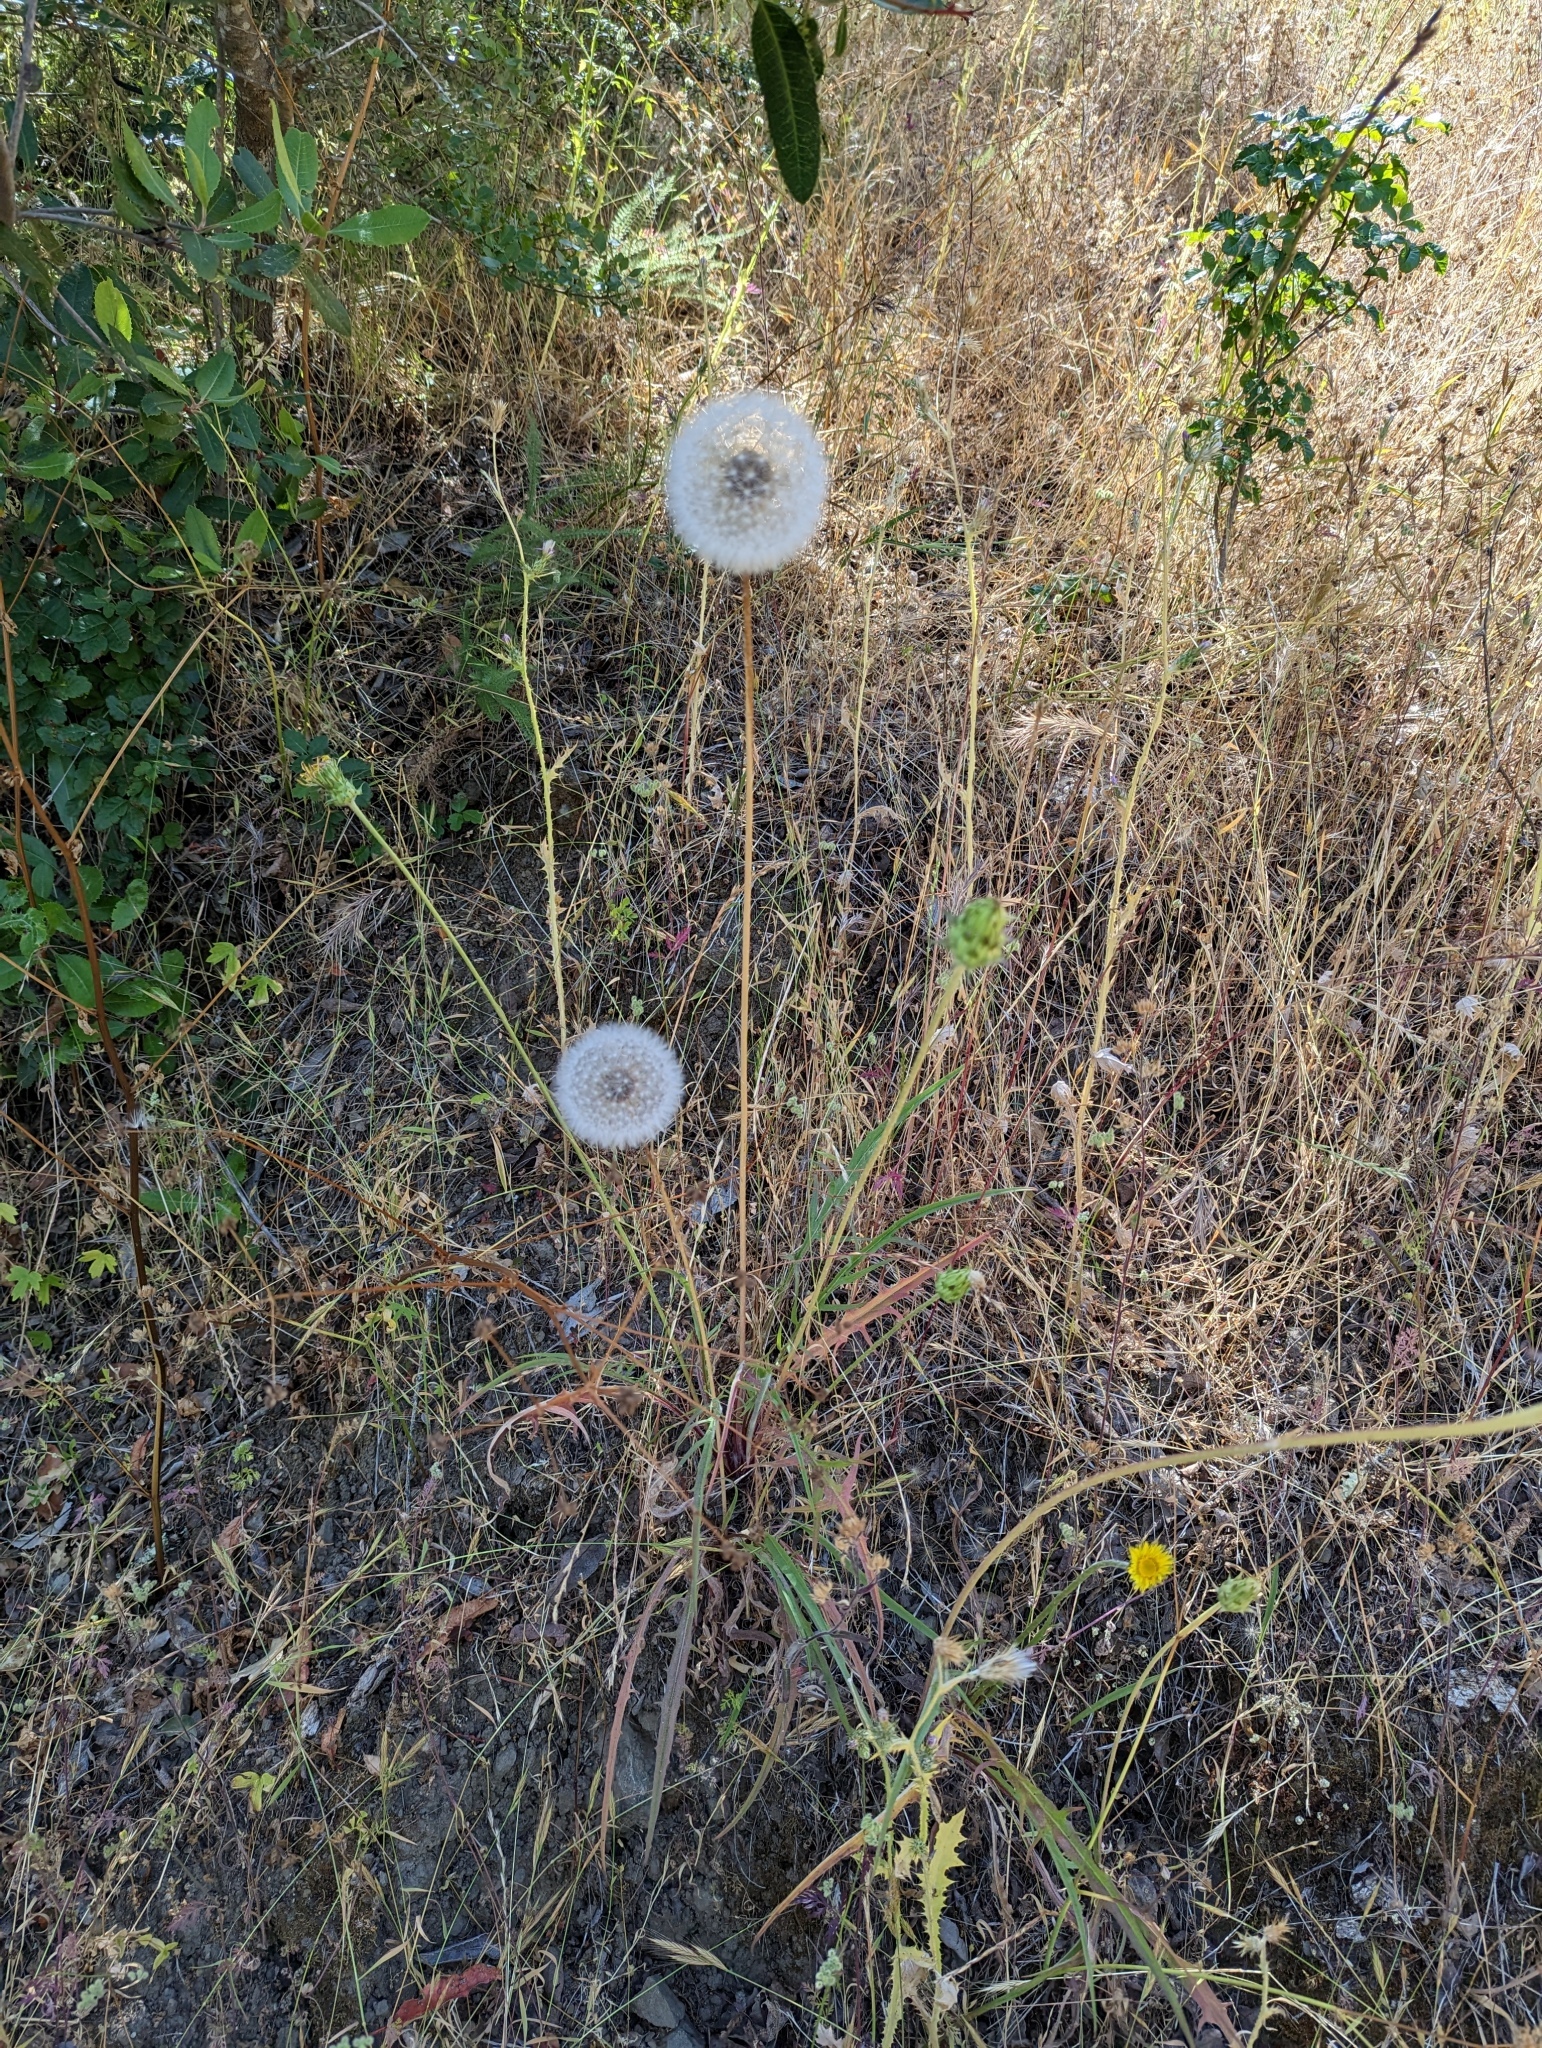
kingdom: Plantae
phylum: Tracheophyta
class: Magnoliopsida
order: Asterales
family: Asteraceae
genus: Agoseris
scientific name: Agoseris grandiflora
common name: Grassland agoseris
